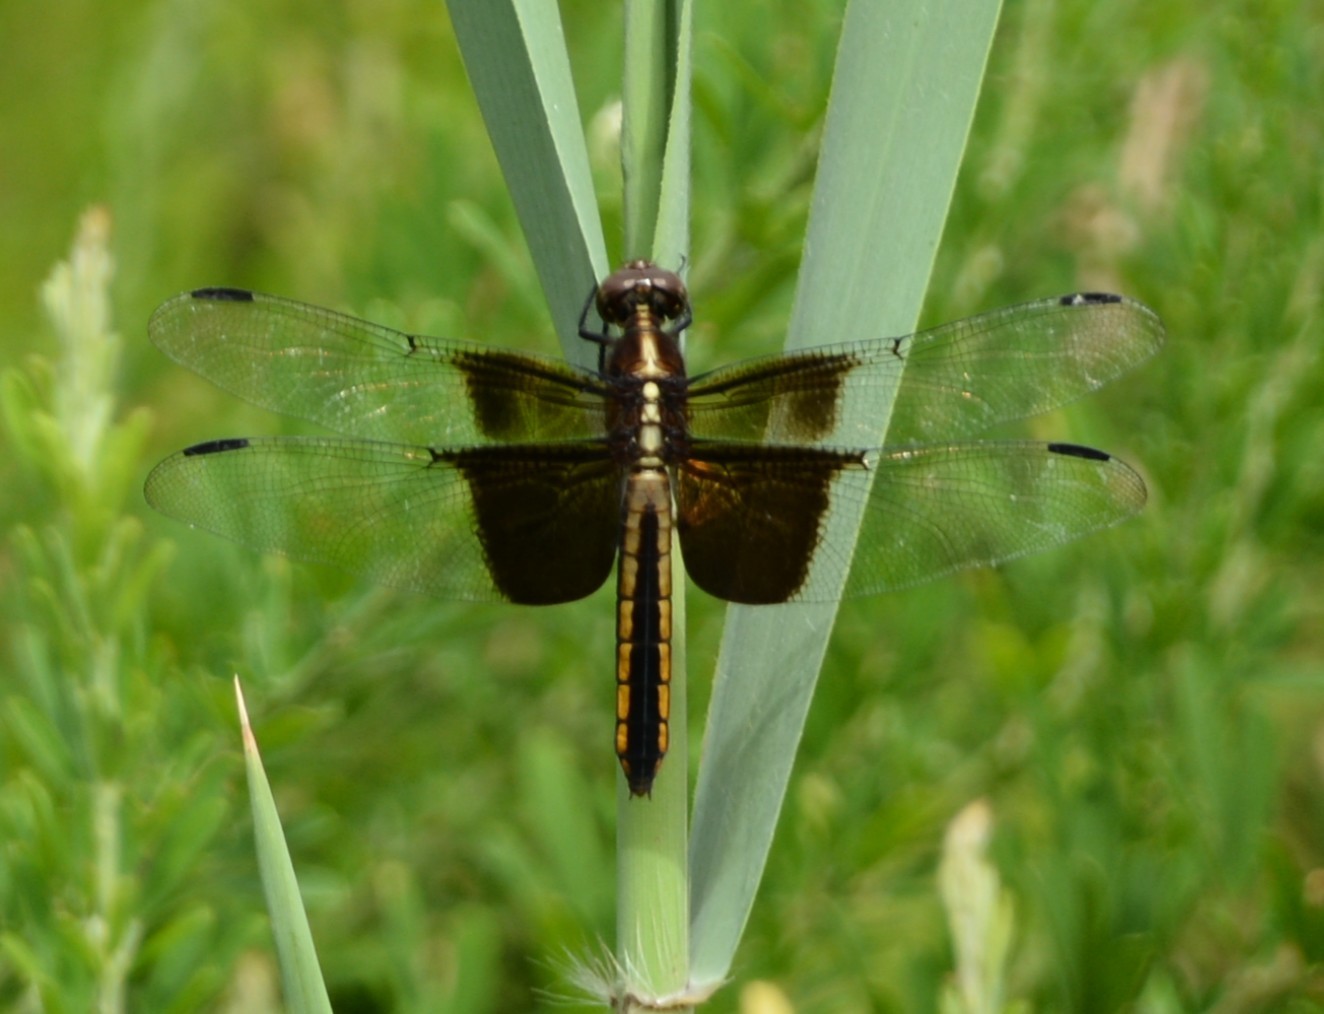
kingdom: Animalia
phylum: Arthropoda
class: Insecta
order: Odonata
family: Libellulidae
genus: Libellula
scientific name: Libellula luctuosa
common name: Widow skimmer
